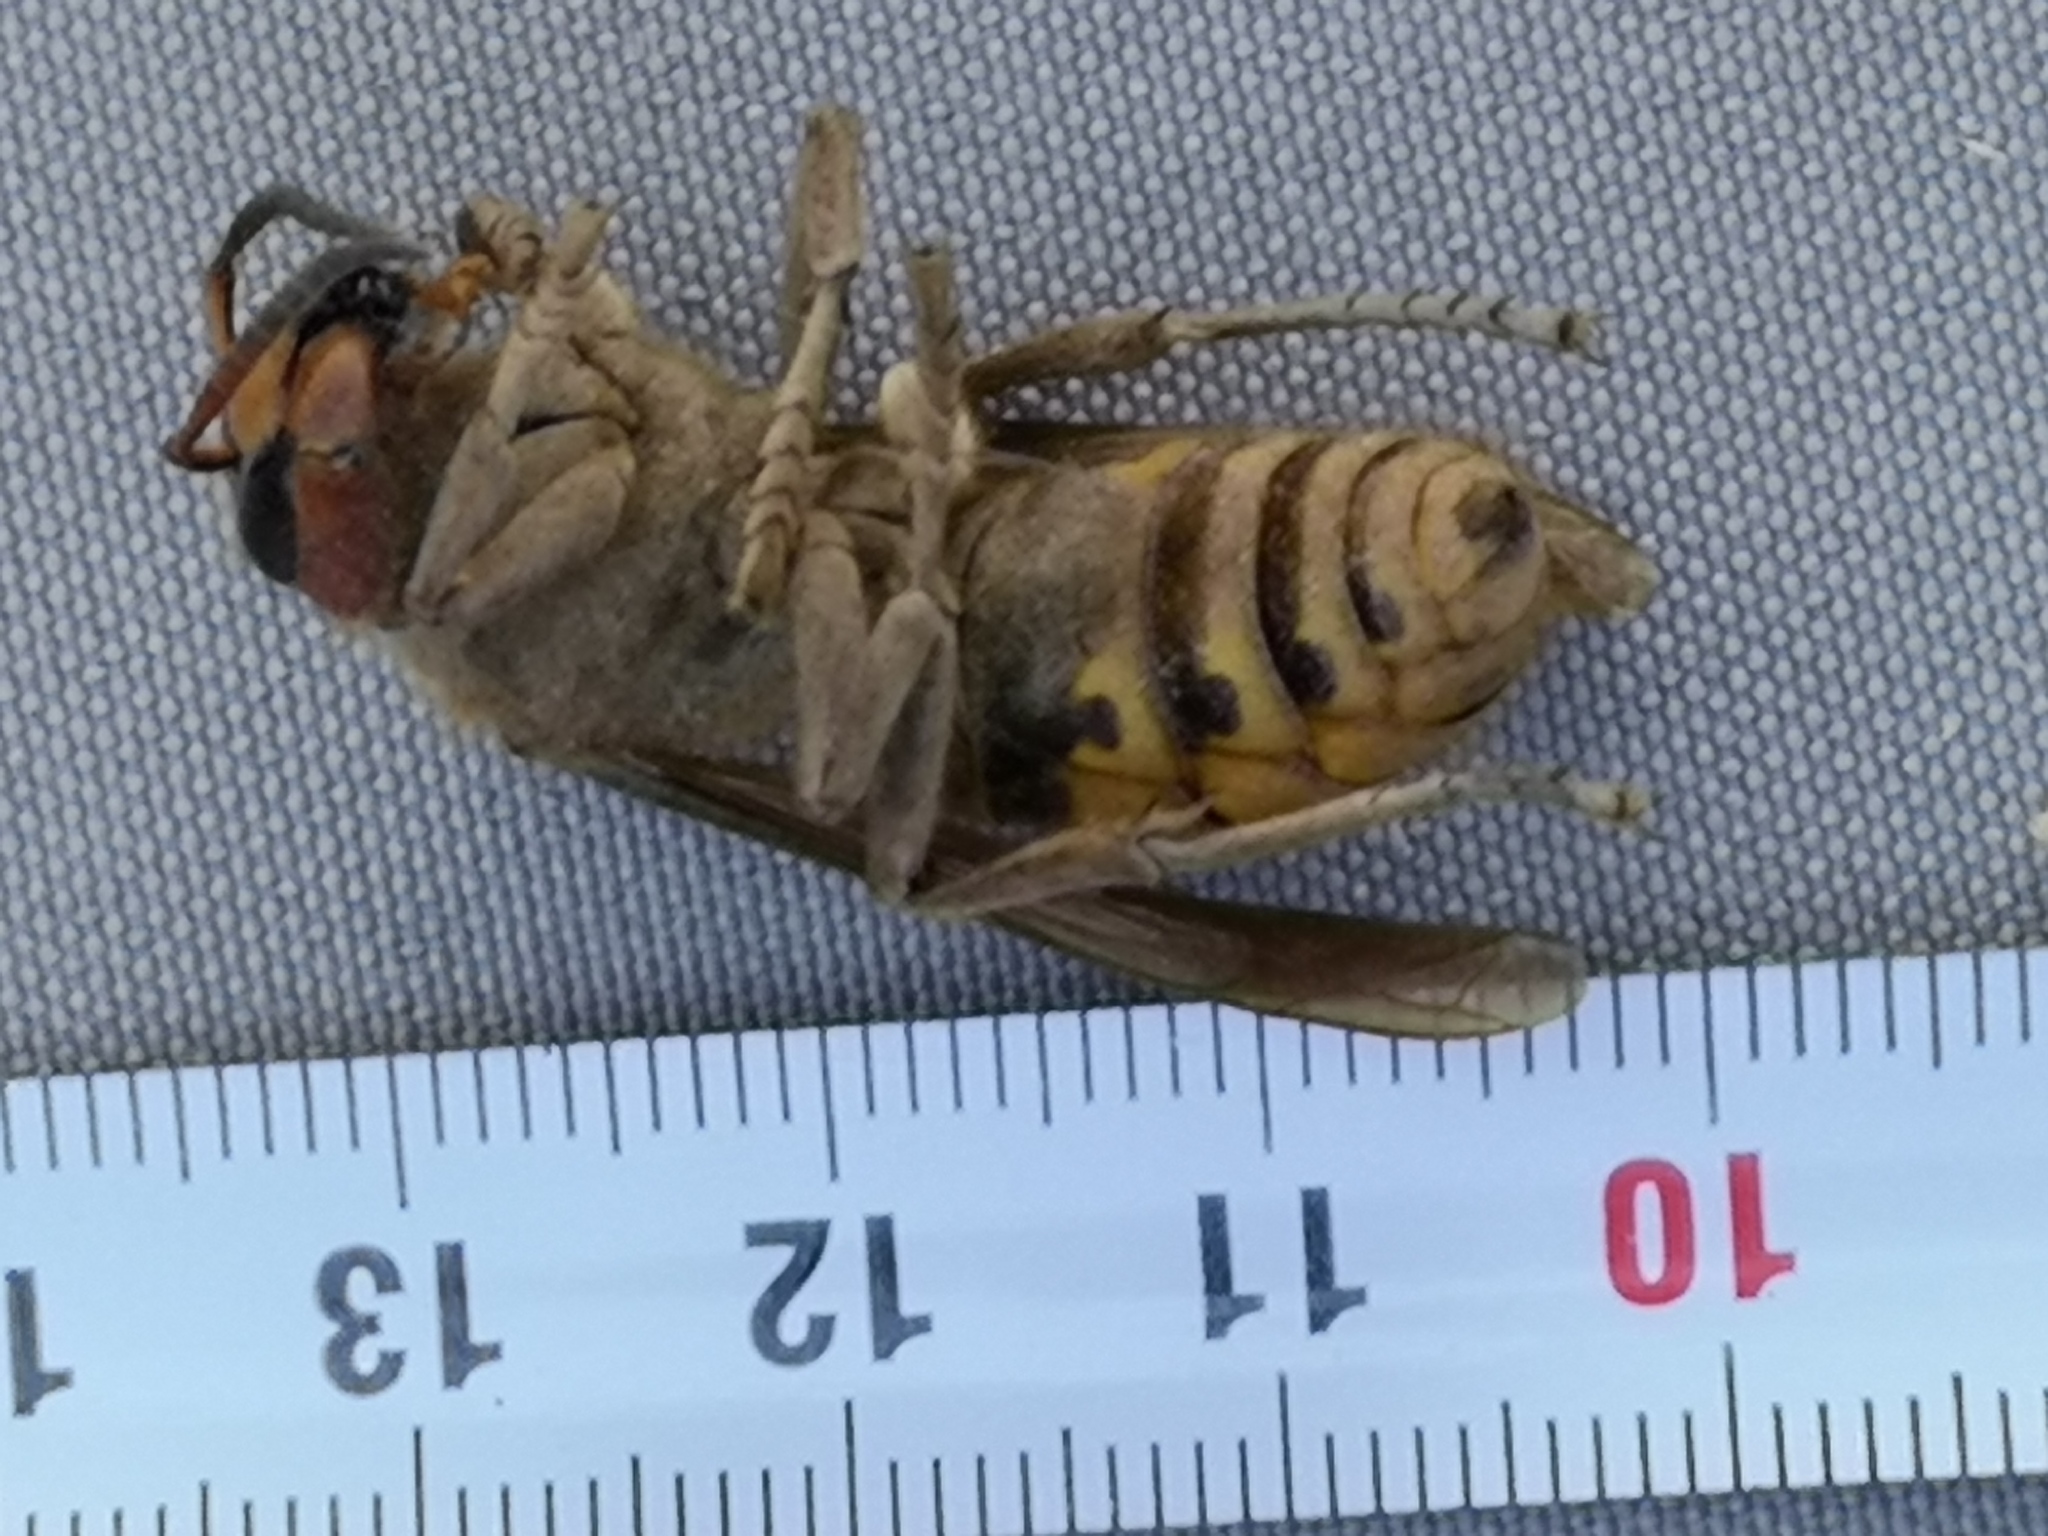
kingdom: Animalia
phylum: Arthropoda
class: Insecta
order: Hymenoptera
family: Vespidae
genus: Vespa
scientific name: Vespa crabro
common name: Hornet
